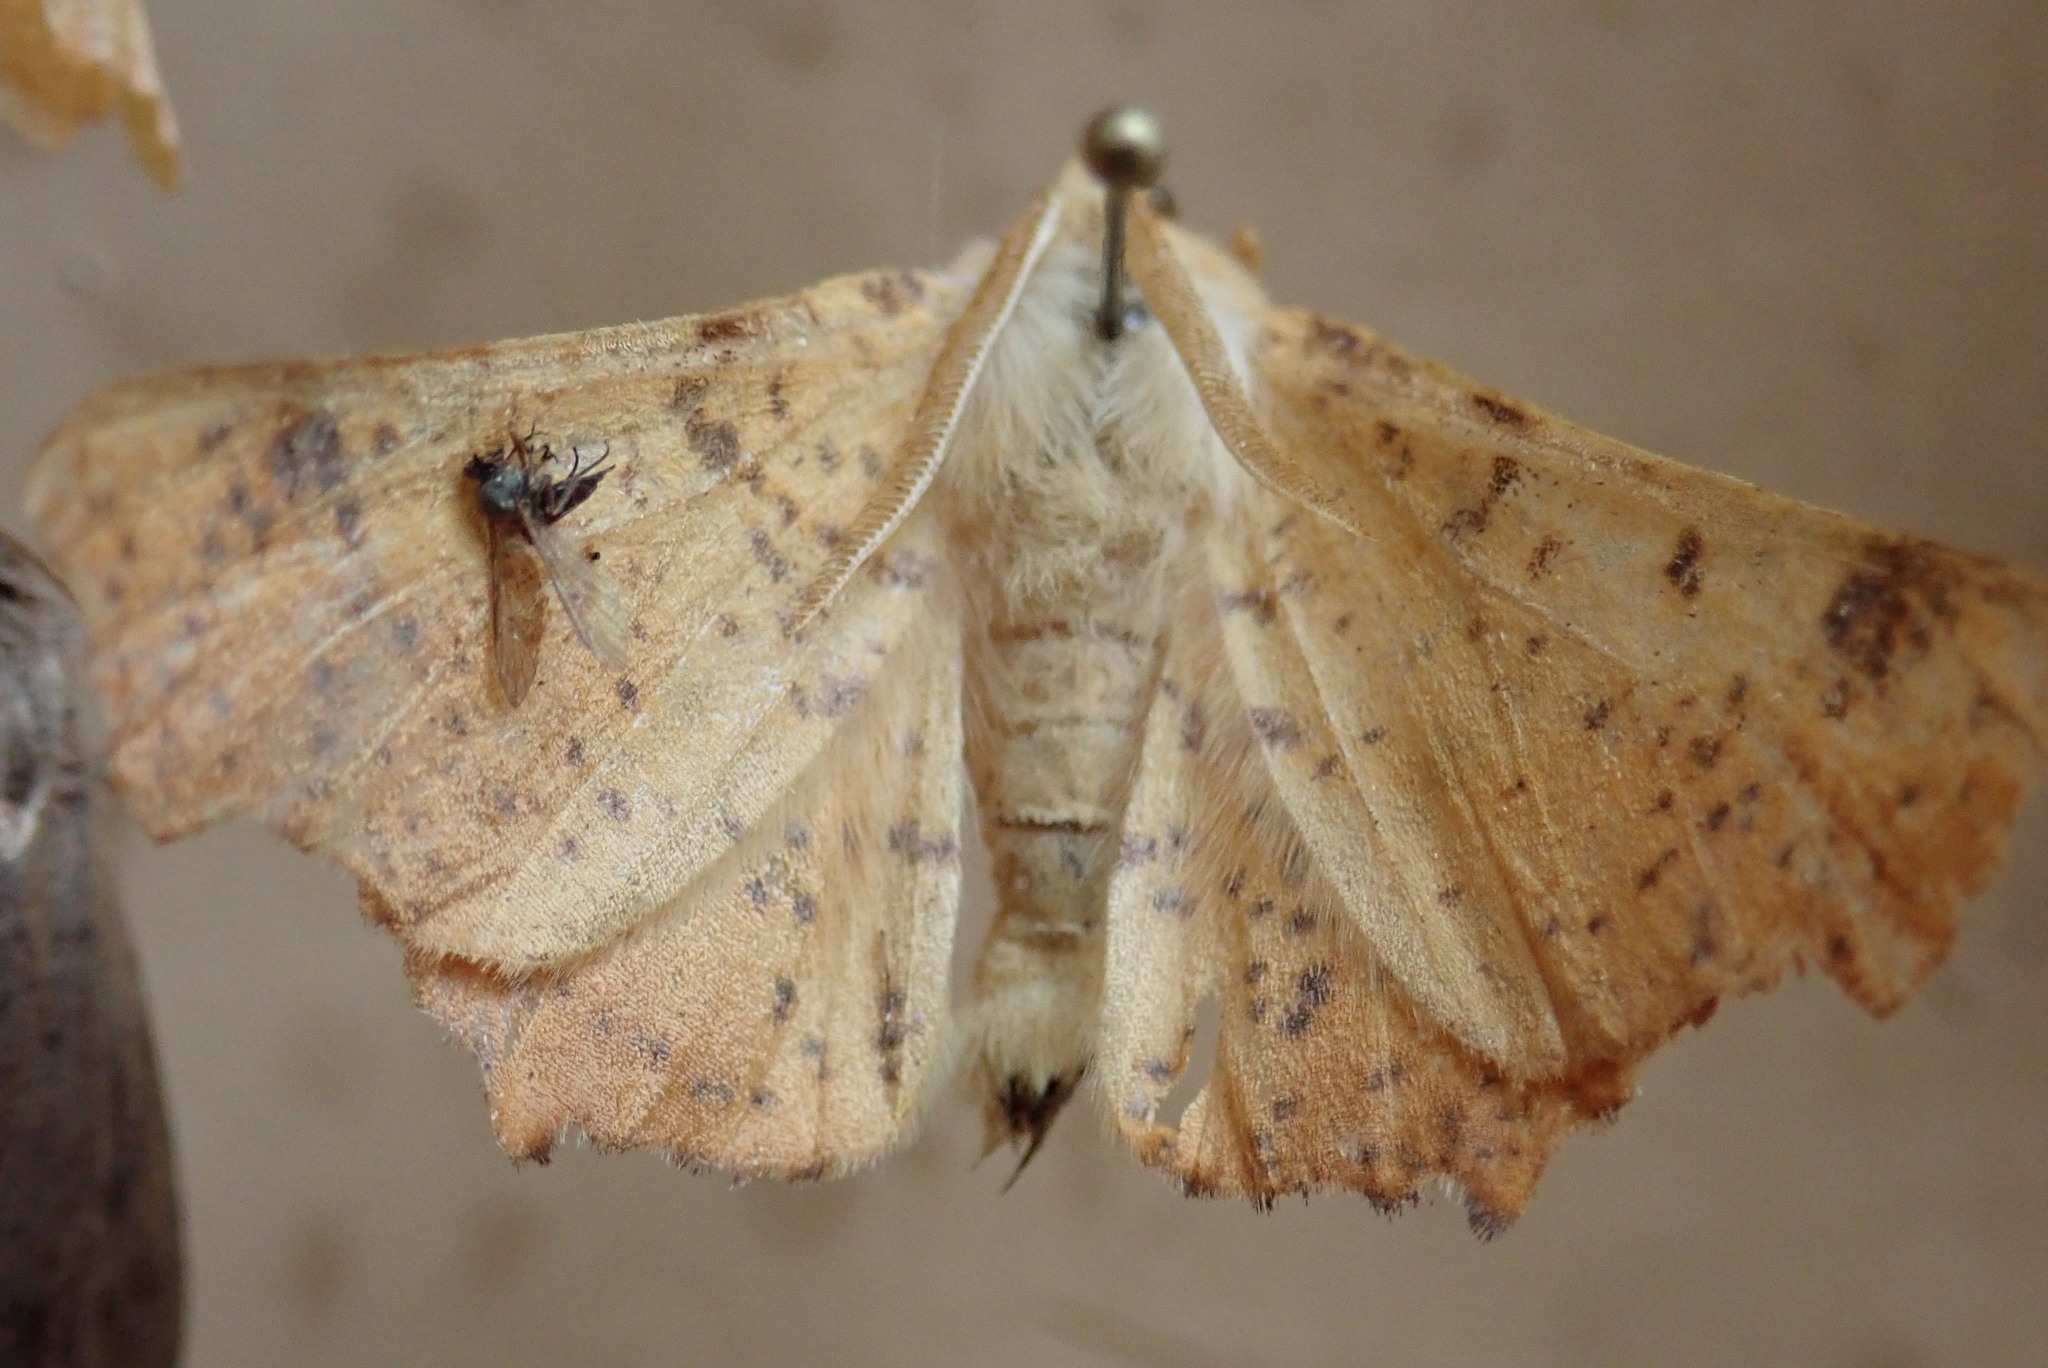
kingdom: Animalia
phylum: Arthropoda
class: Insecta
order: Lepidoptera
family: Geometridae
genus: Ennomos
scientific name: Ennomos magnaria
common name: Maple spanworm
